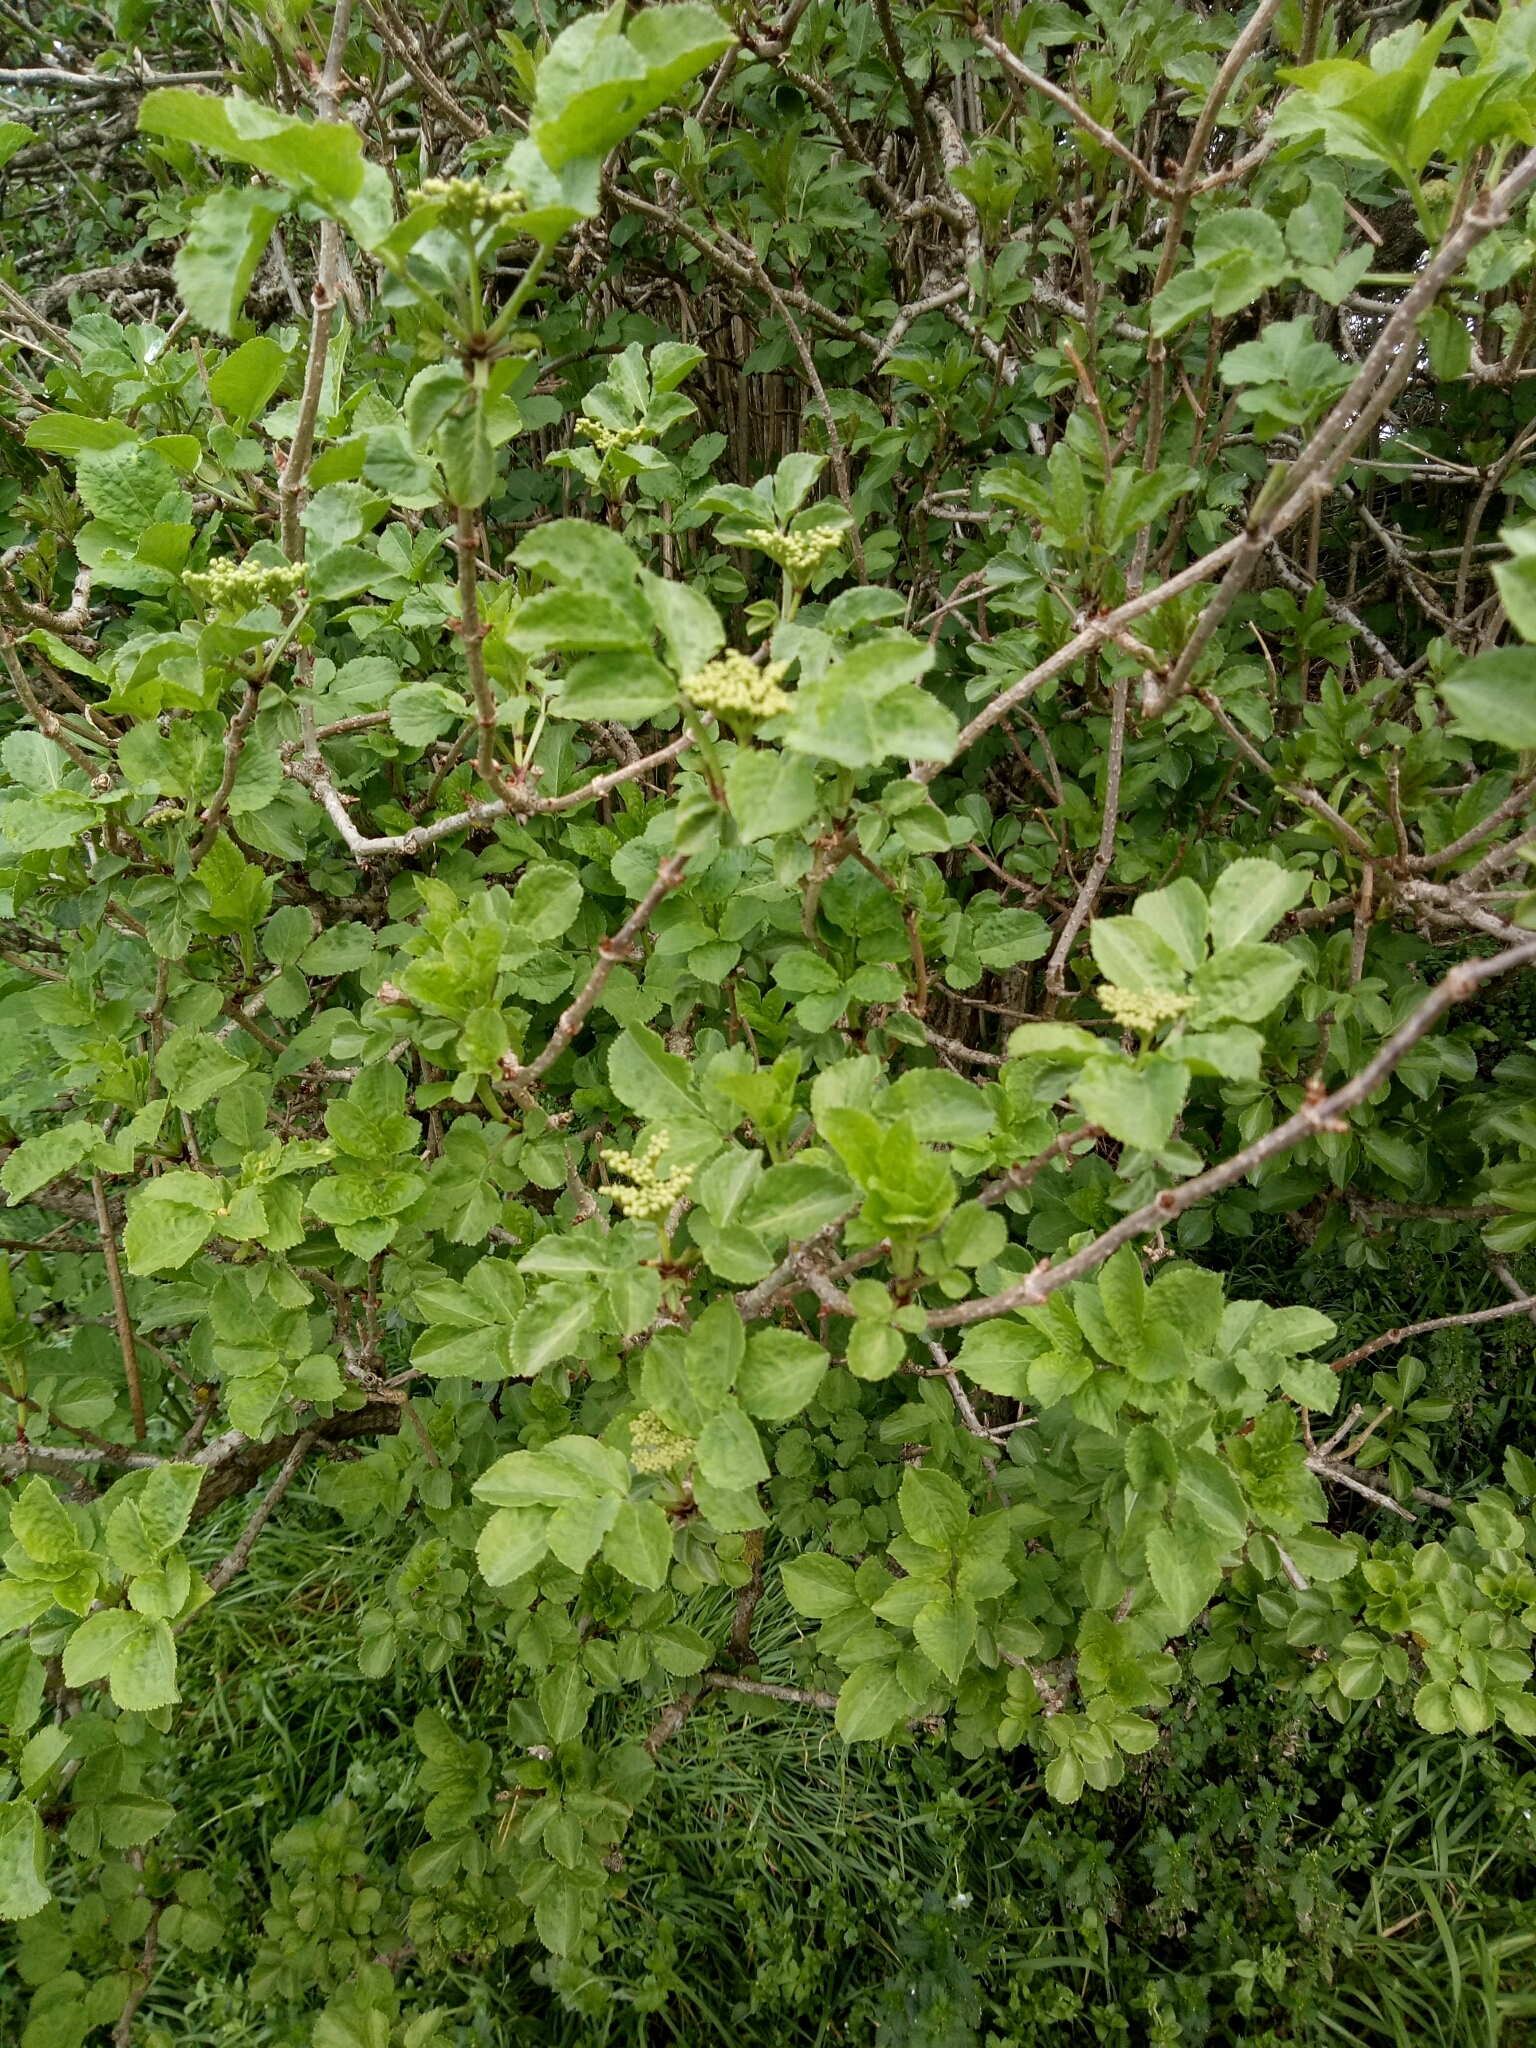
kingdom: Plantae
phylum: Tracheophyta
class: Magnoliopsida
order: Dipsacales
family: Viburnaceae
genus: Sambucus
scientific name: Sambucus nigra
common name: Elder
